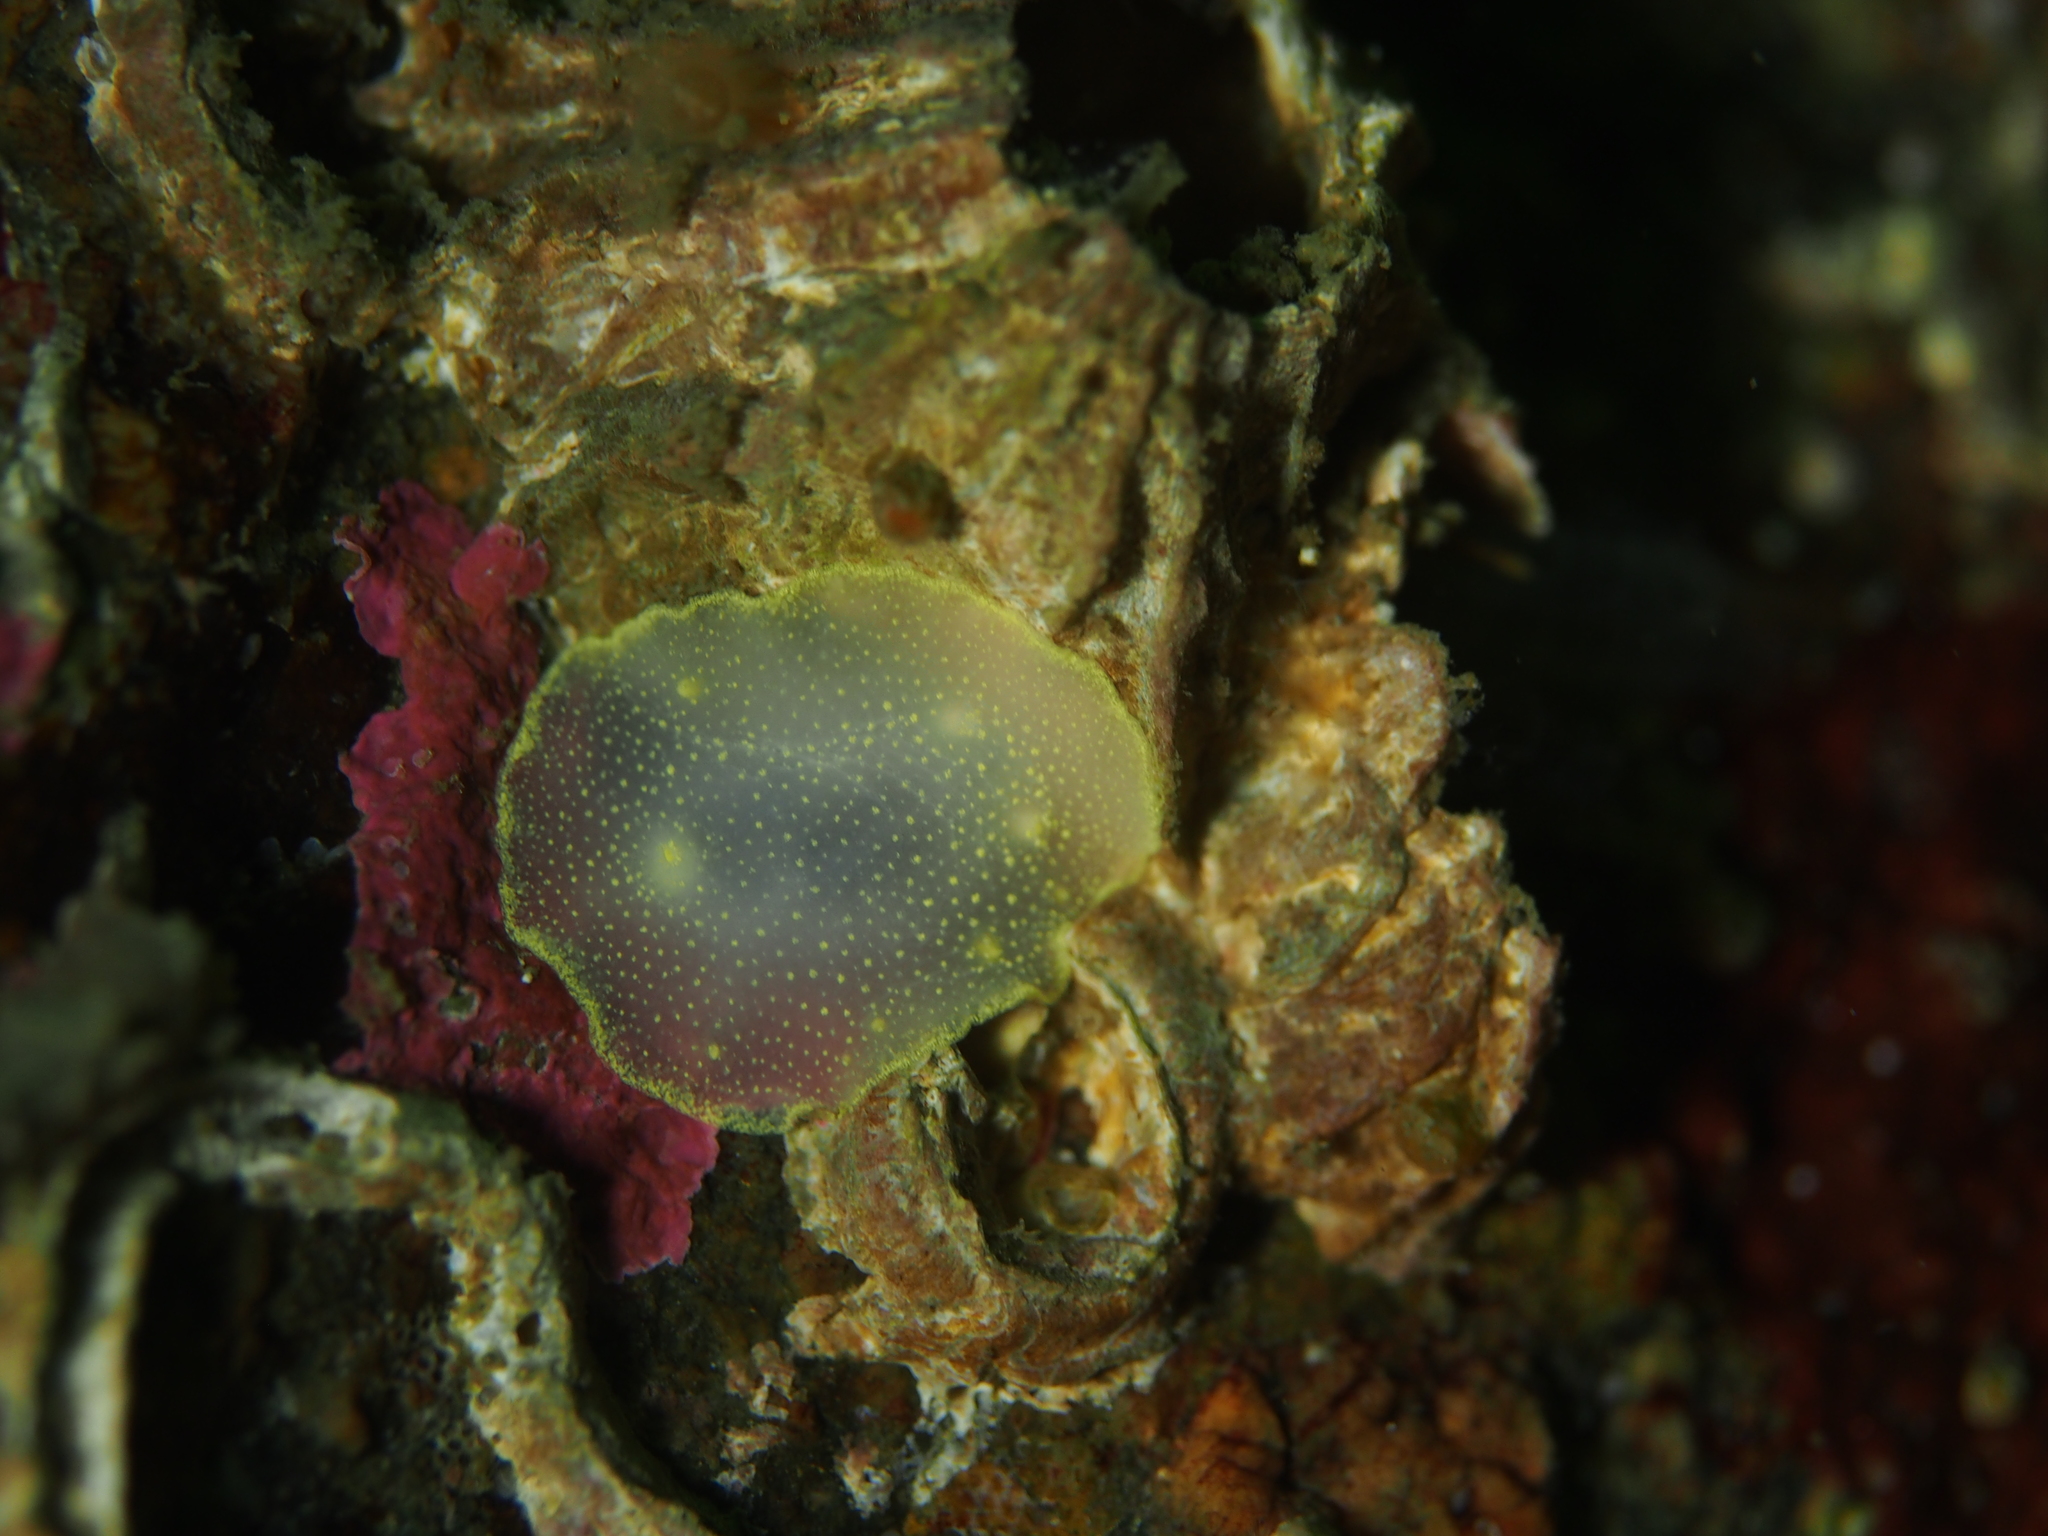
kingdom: Animalia
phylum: Mollusca
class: Gastropoda
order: Nudibranchia
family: Cadlinidae
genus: Cadlina
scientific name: Cadlina laevis
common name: White atlantic cadlina
